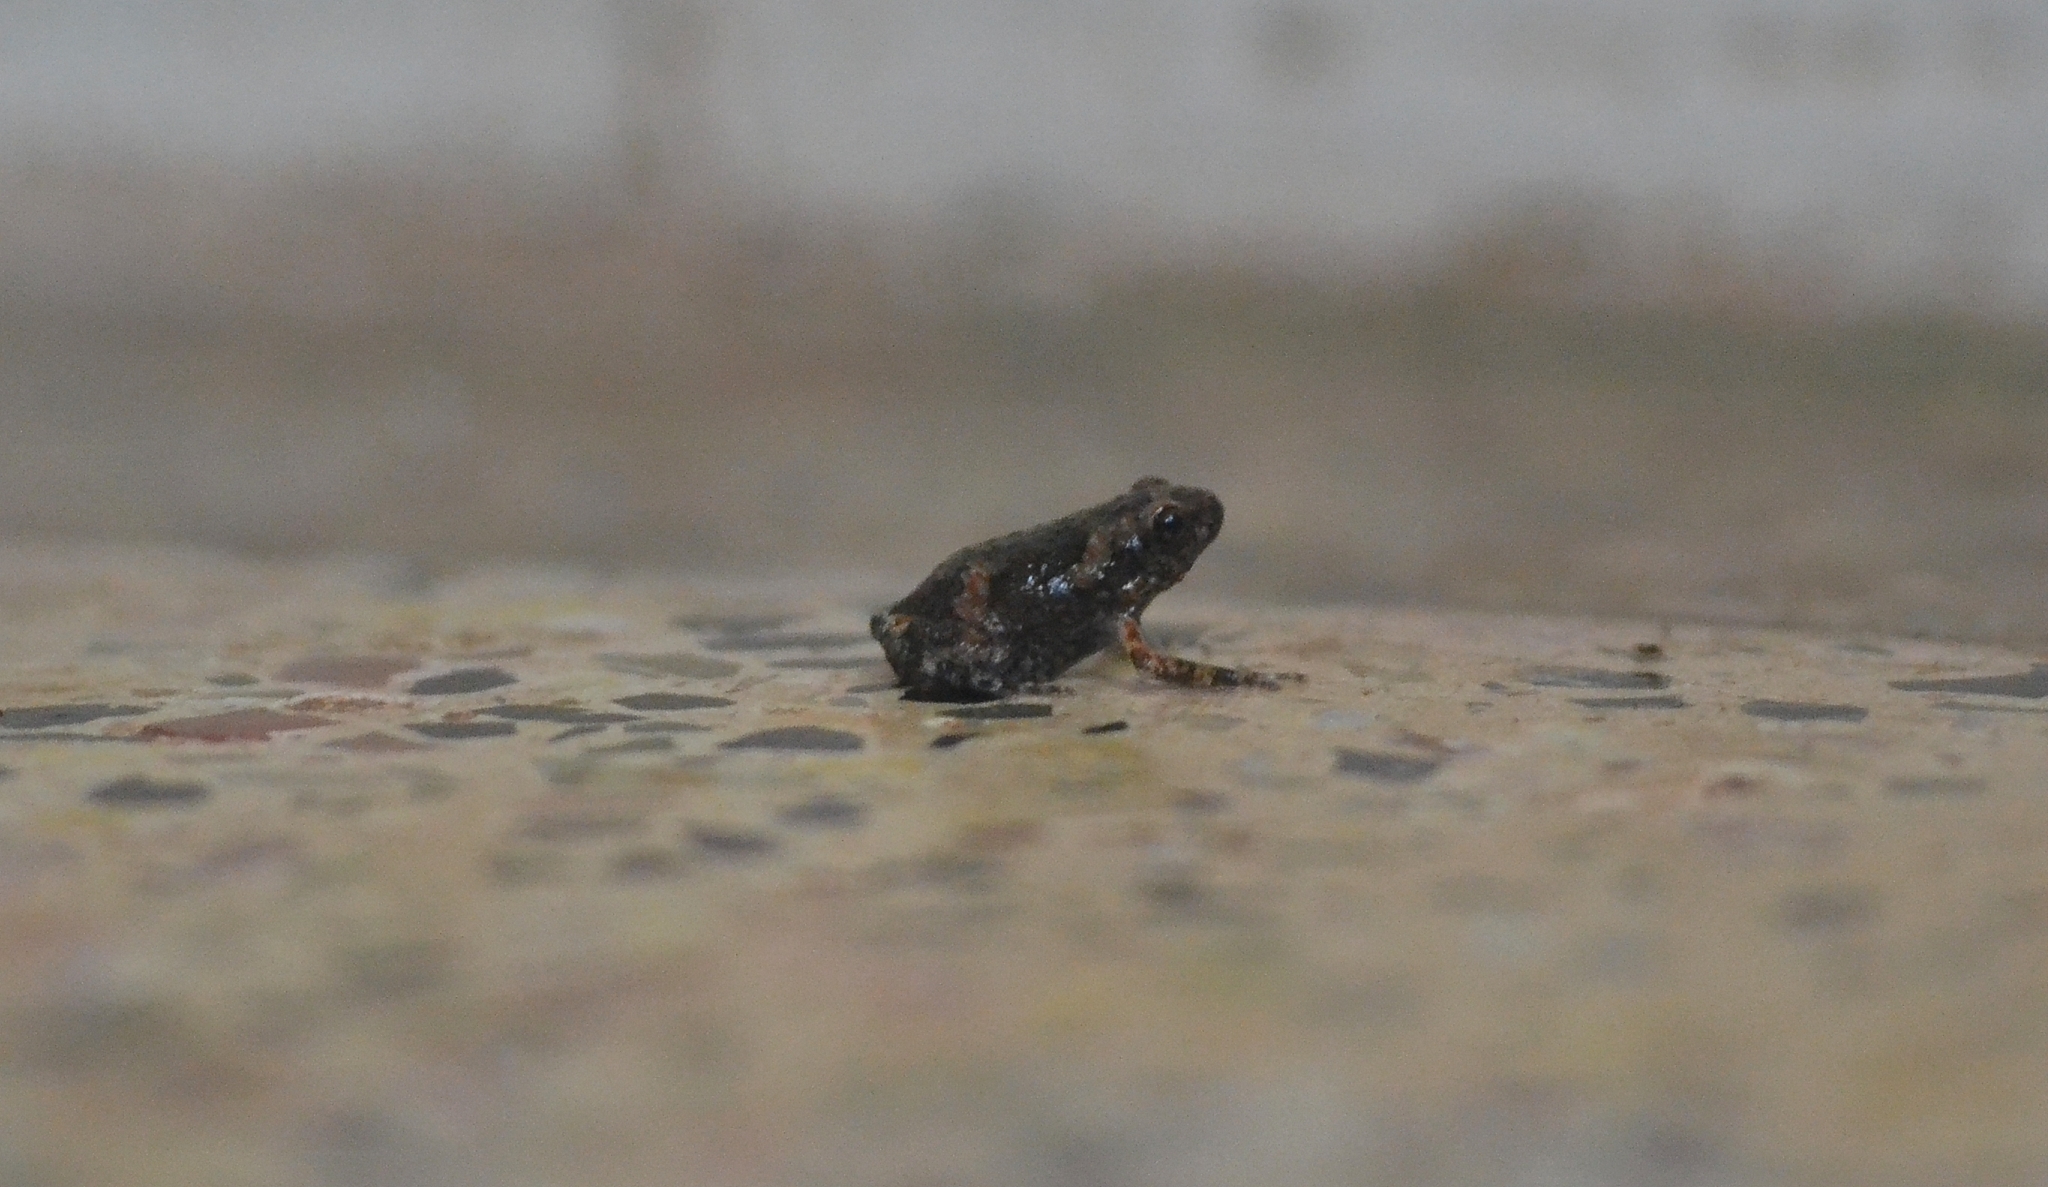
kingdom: Animalia
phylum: Chordata
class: Amphibia
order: Anura
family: Microhylidae
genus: Uperodon
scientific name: Uperodon taprobanicus
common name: Ceylon kaloula
